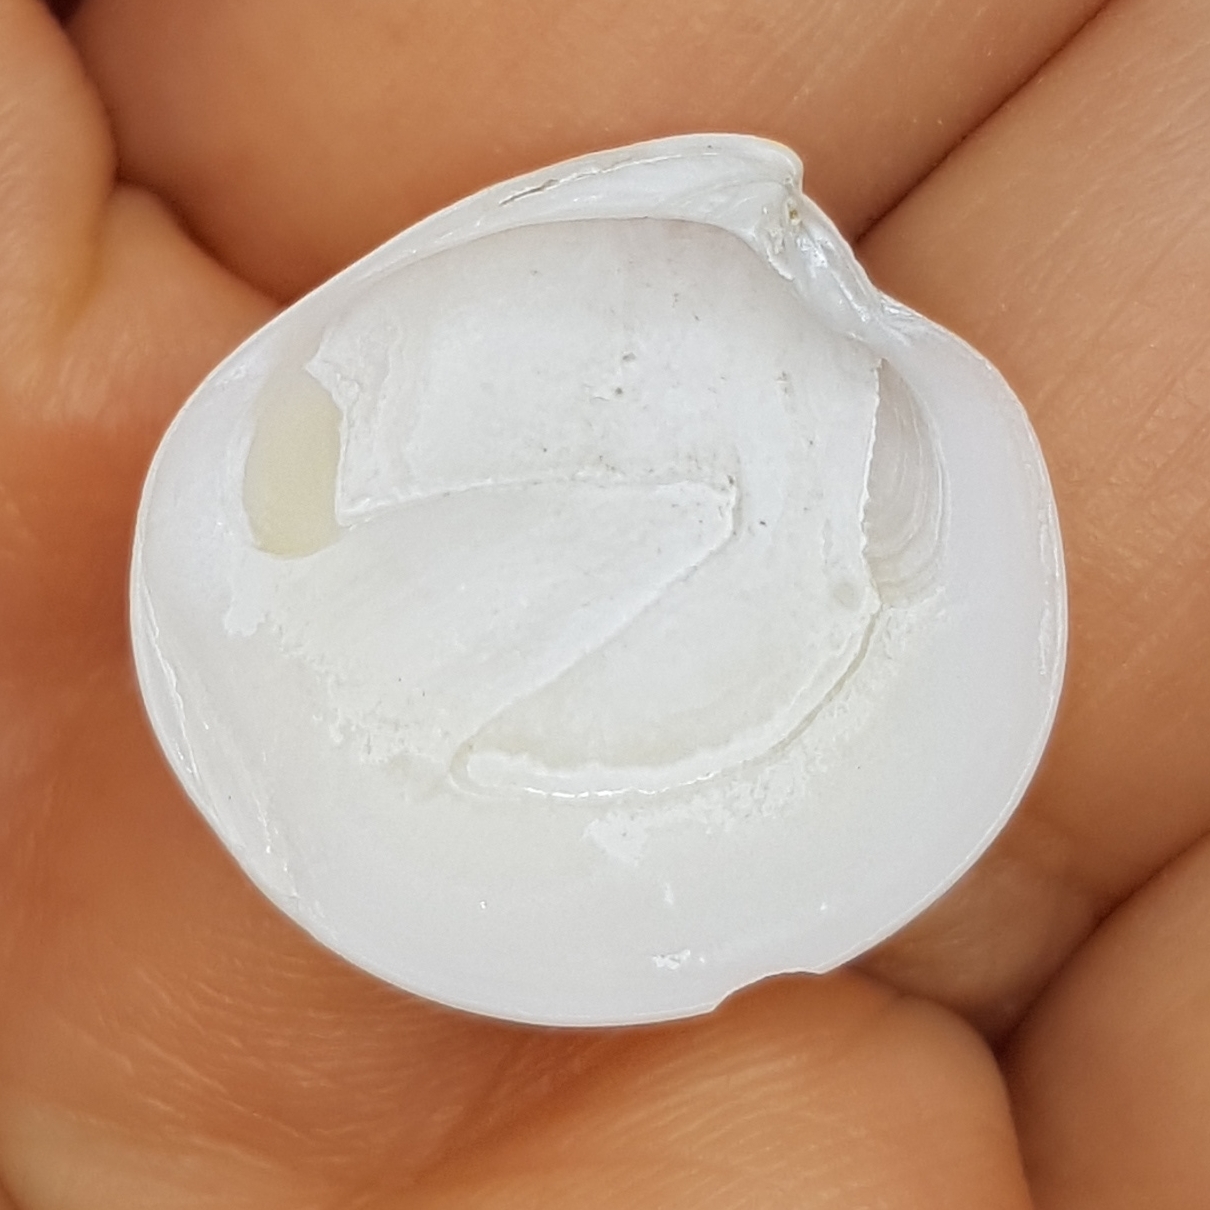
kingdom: Animalia
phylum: Mollusca
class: Bivalvia
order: Venerida
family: Veneridae
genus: Dosinia
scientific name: Dosinia lupinus
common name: Smooth artemis
